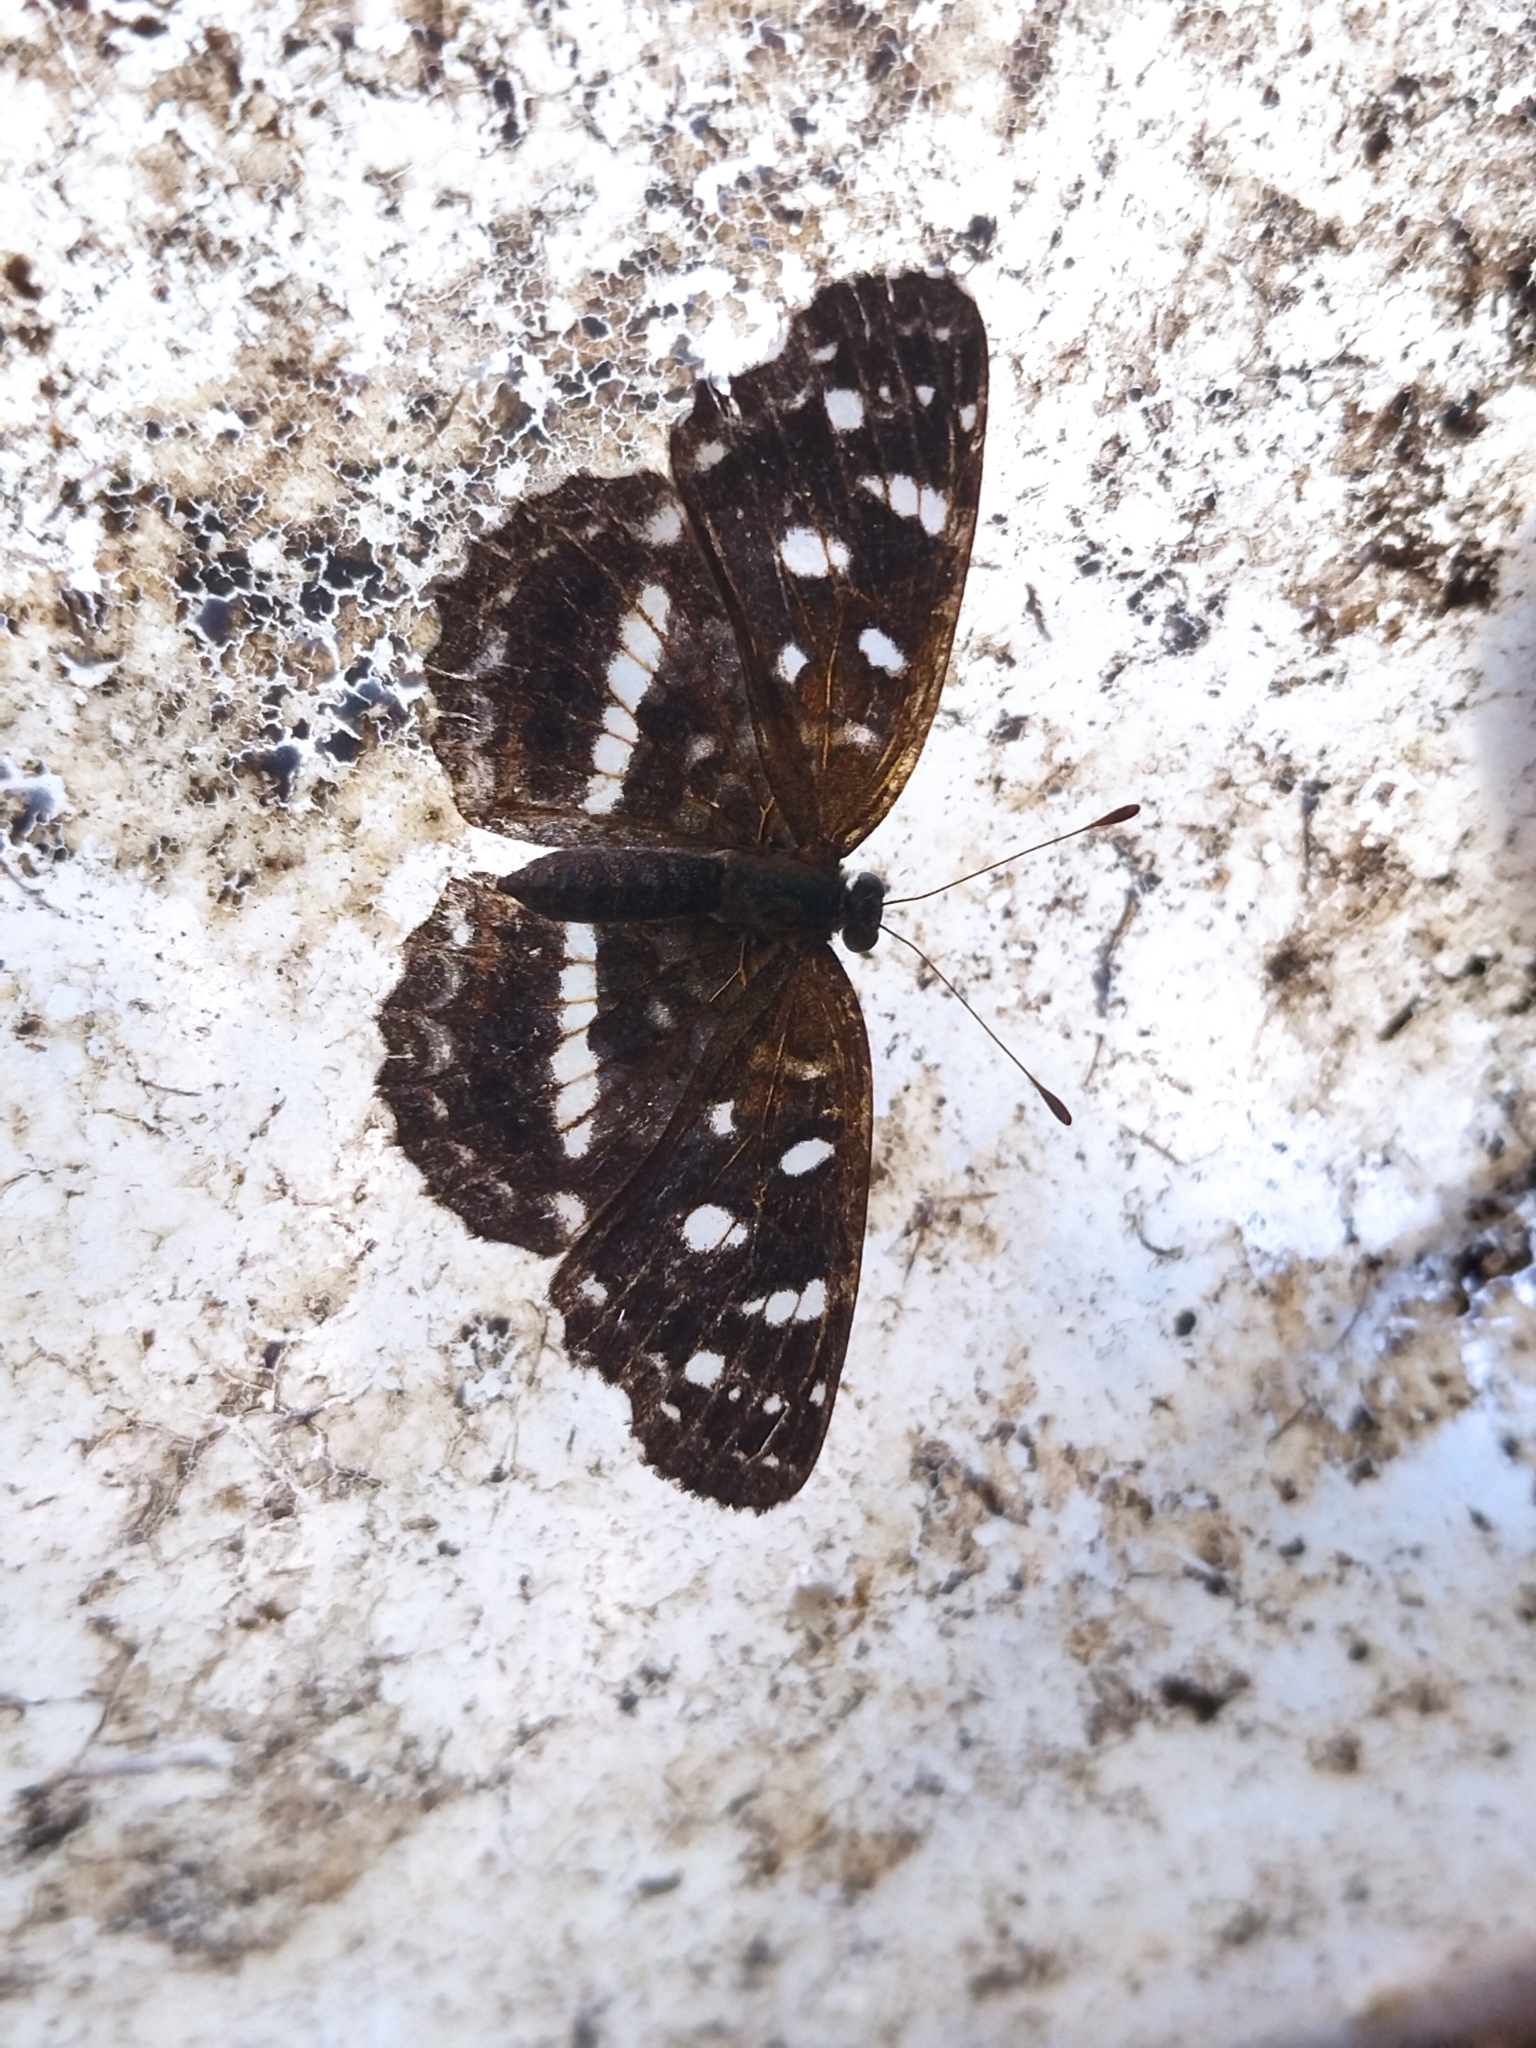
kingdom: Animalia
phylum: Arthropoda
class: Insecta
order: Lepidoptera
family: Nymphalidae
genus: Ortilia
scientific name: Ortilia ithra
